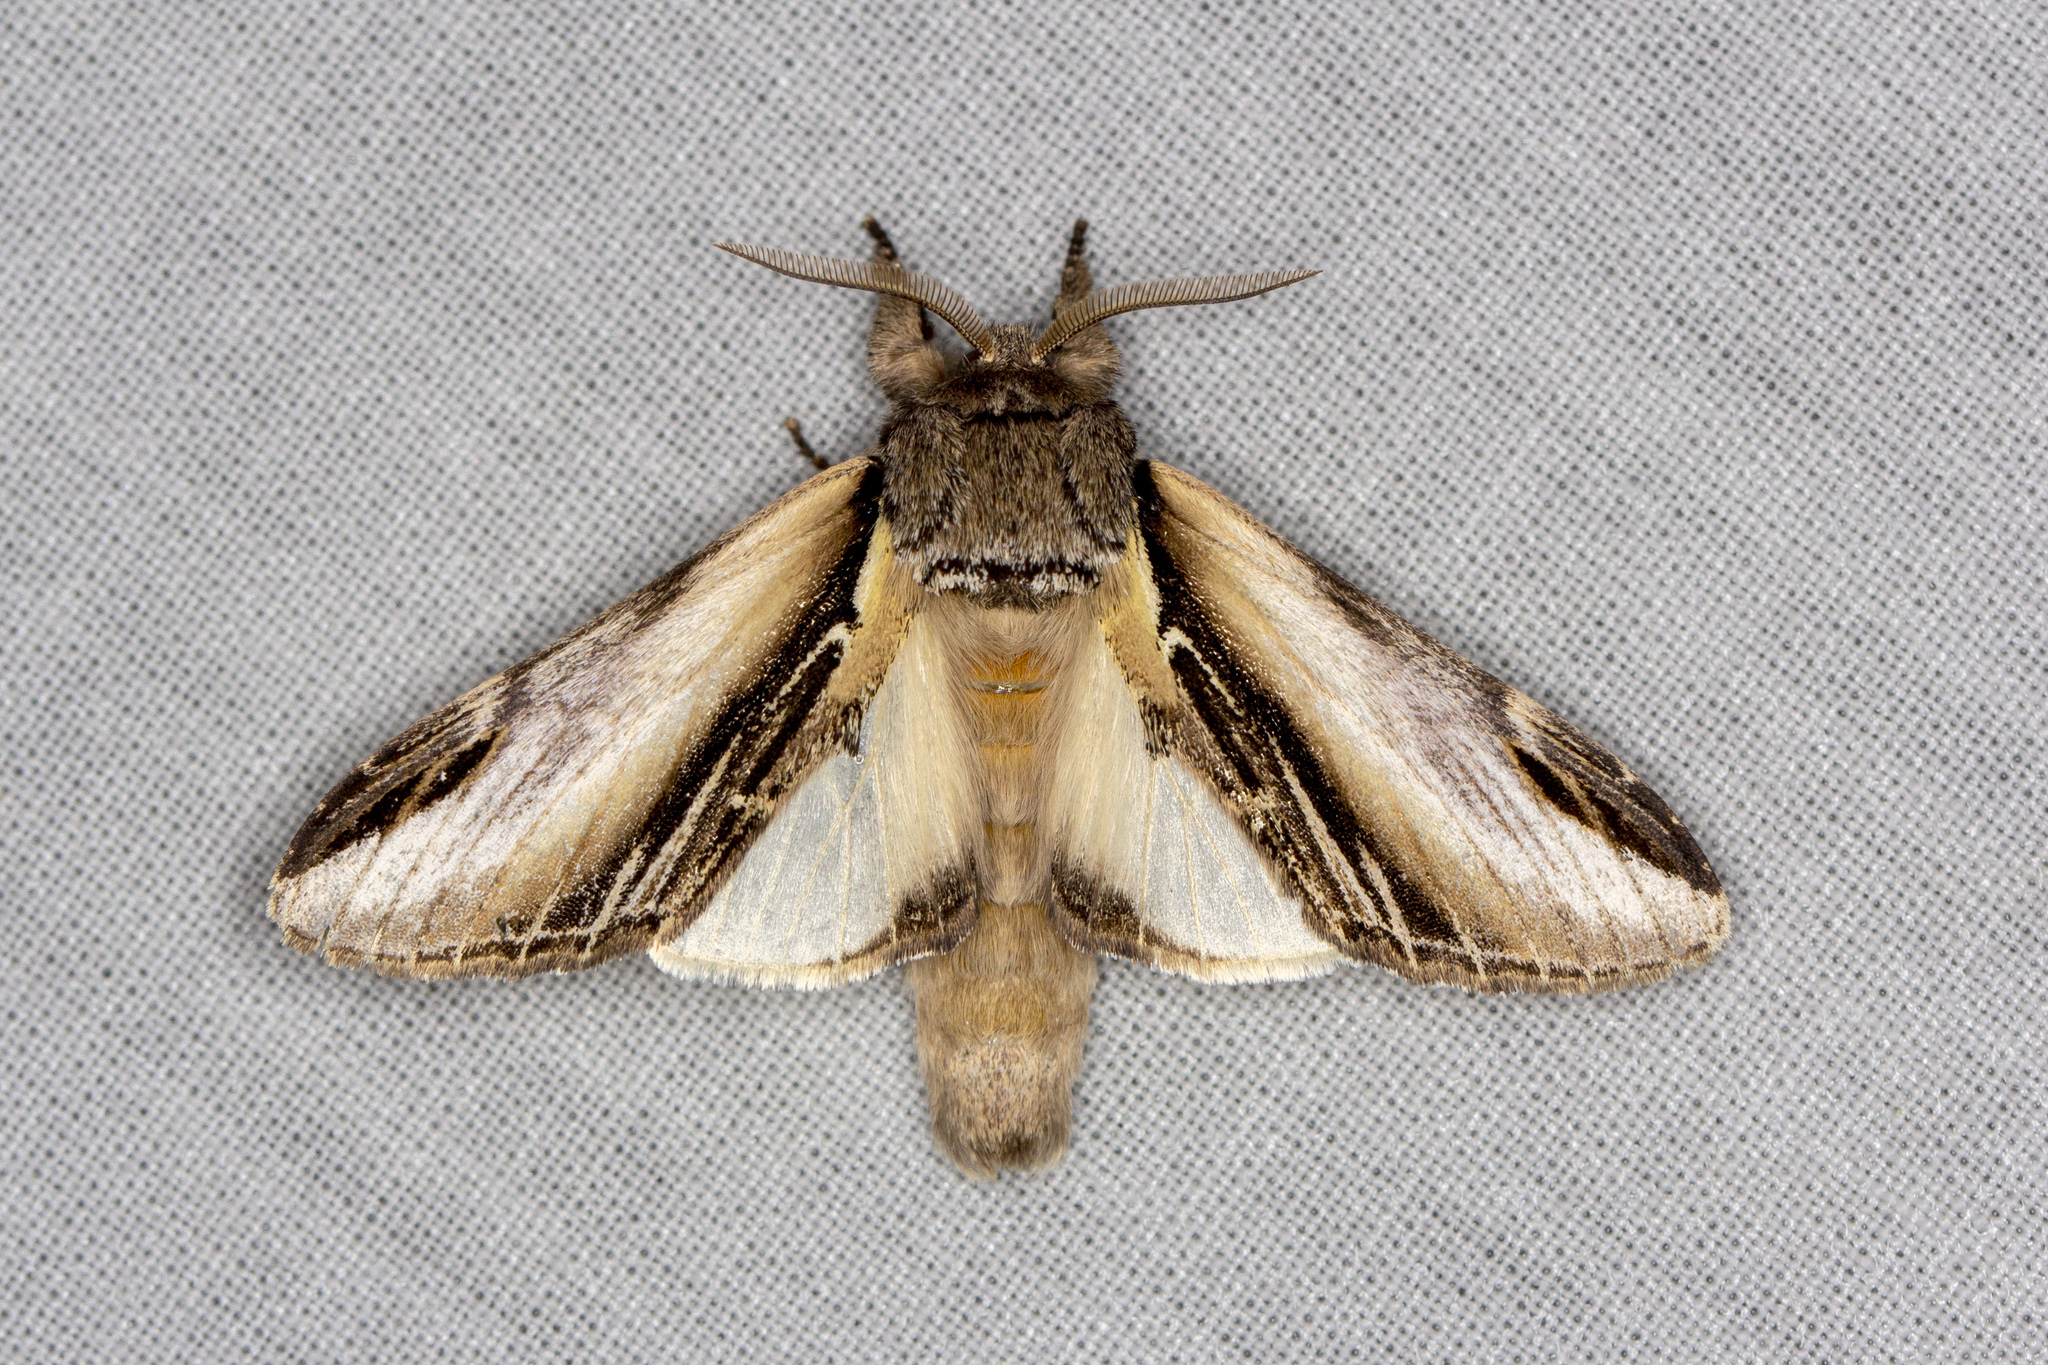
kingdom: Animalia
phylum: Arthropoda
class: Insecta
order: Lepidoptera
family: Notodontidae
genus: Pheosia
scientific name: Pheosia tremula
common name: Swallow prominent
